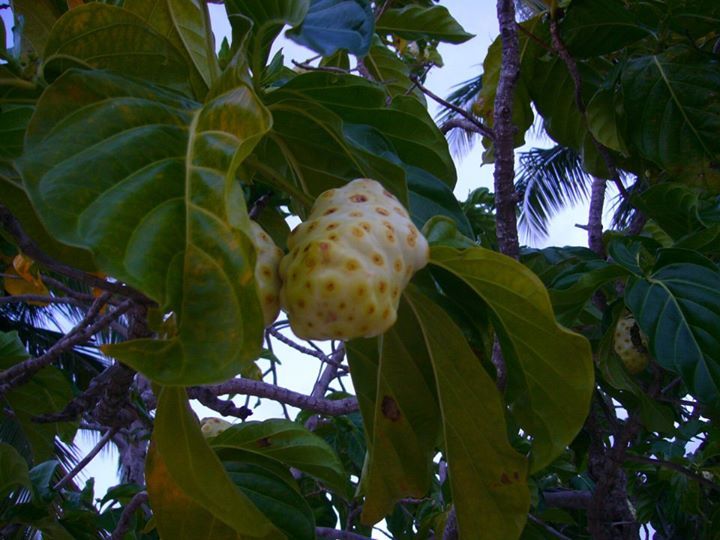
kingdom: Plantae
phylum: Tracheophyta
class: Magnoliopsida
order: Gentianales
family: Rubiaceae
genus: Morinda
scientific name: Morinda citrifolia
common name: Indian-mulberry
